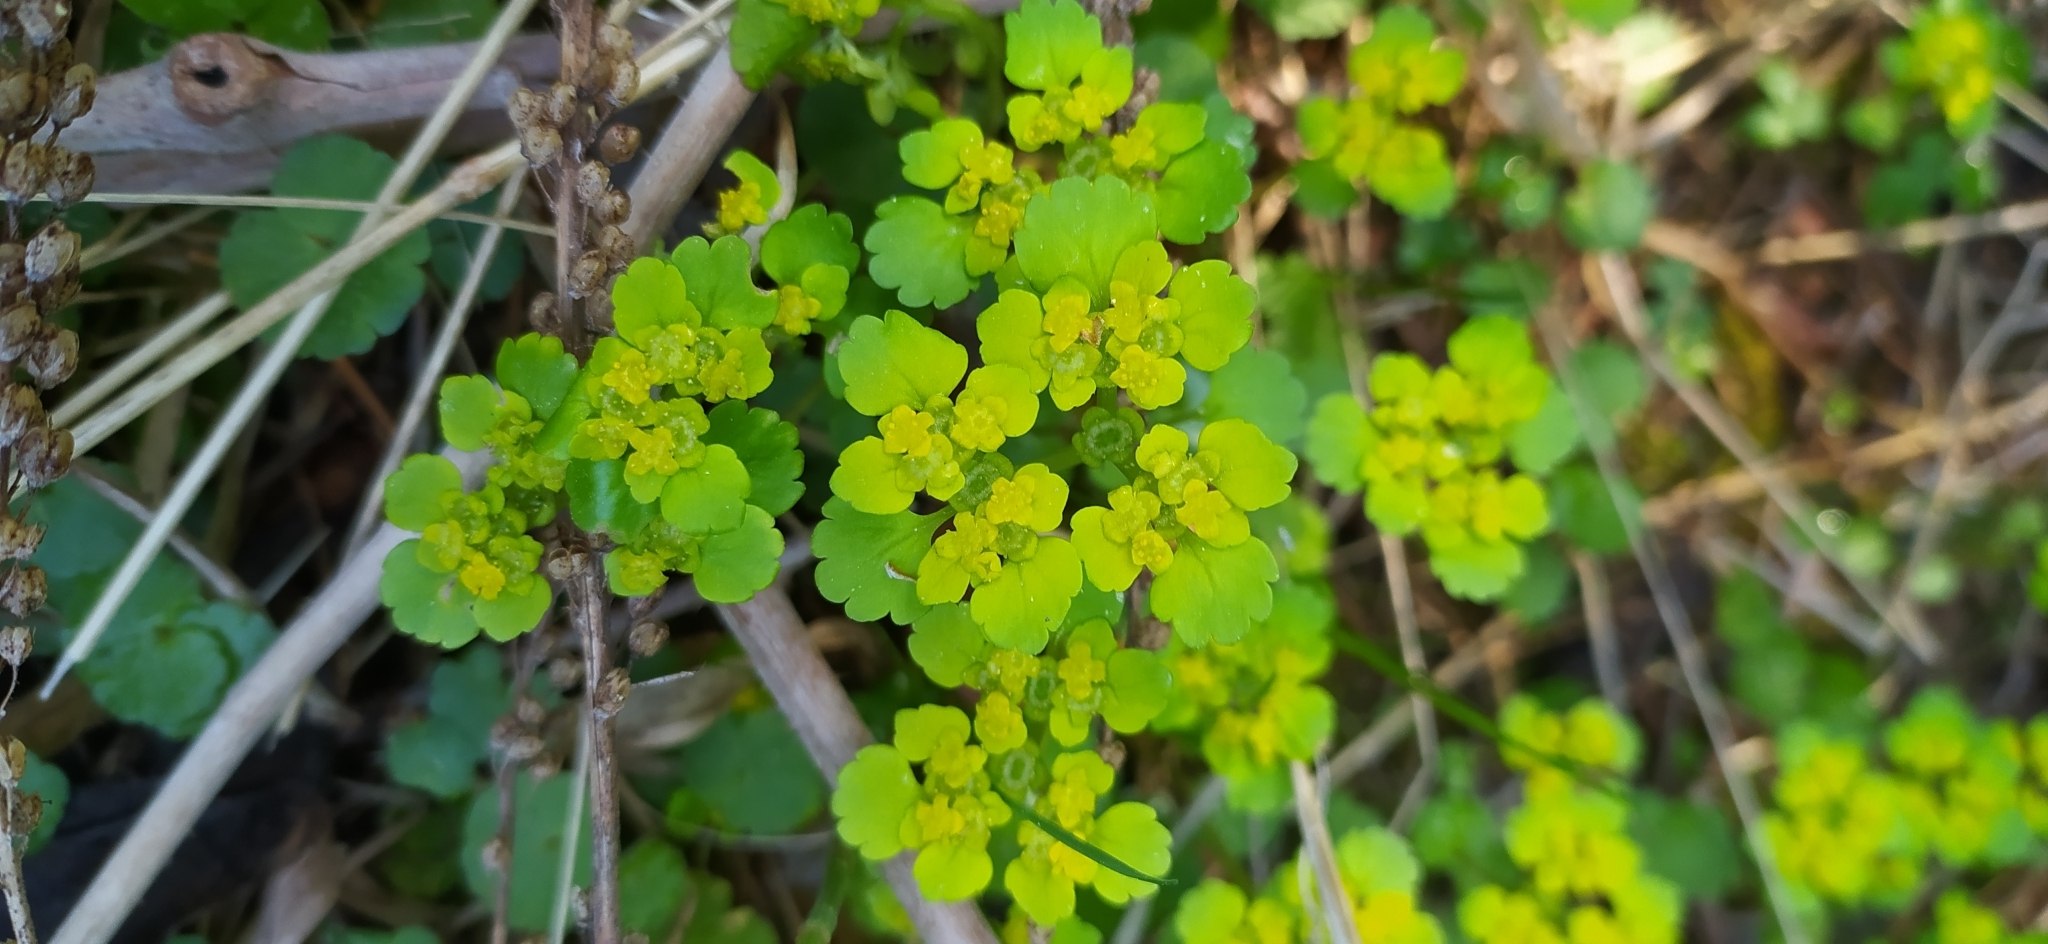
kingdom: Plantae
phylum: Tracheophyta
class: Magnoliopsida
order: Saxifragales
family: Saxifragaceae
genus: Chrysosplenium
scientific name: Chrysosplenium alternifolium
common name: Alternate-leaved golden-saxifrage
